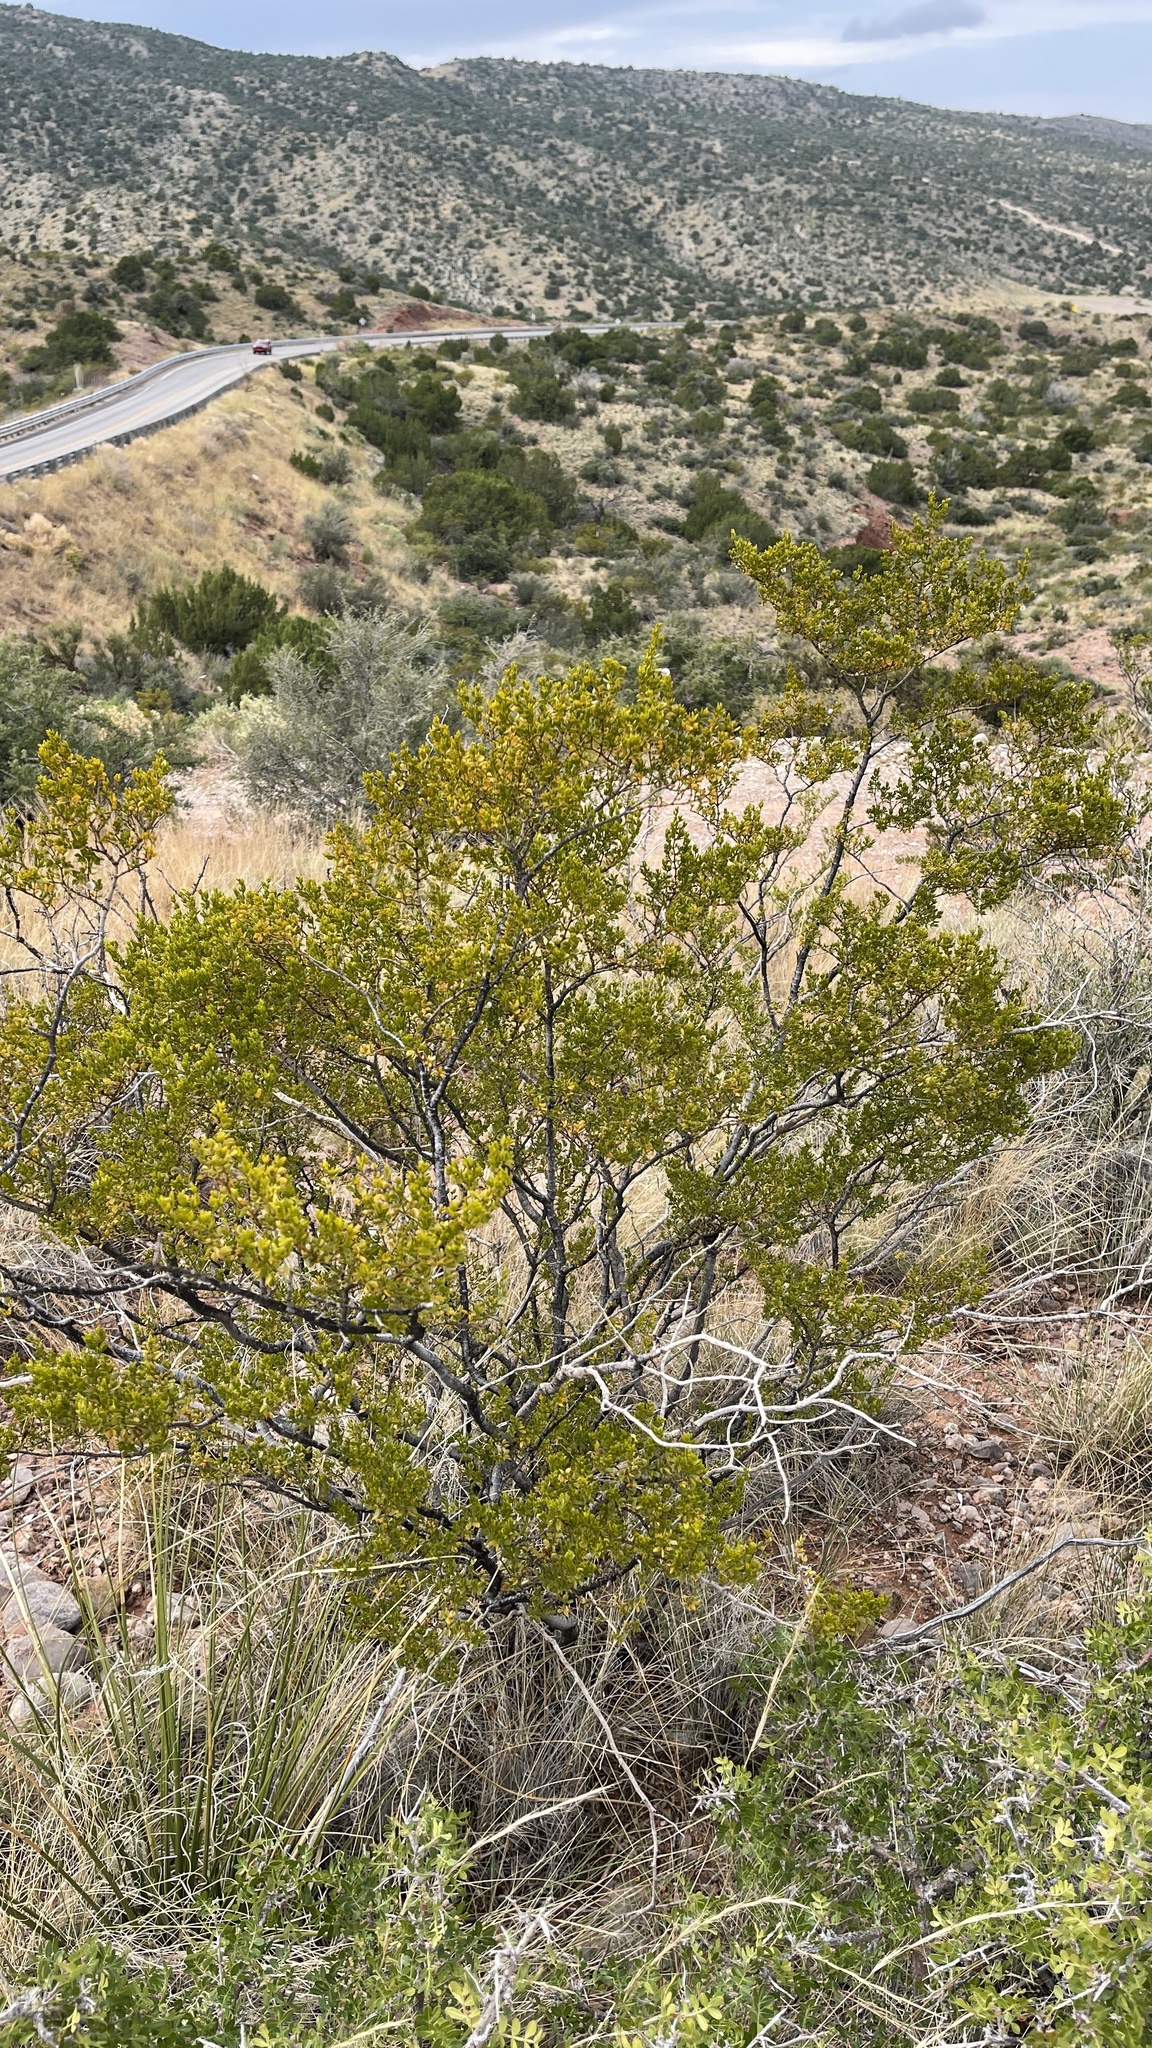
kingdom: Plantae
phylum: Tracheophyta
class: Magnoliopsida
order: Zygophyllales
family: Zygophyllaceae
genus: Larrea
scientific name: Larrea tridentata
